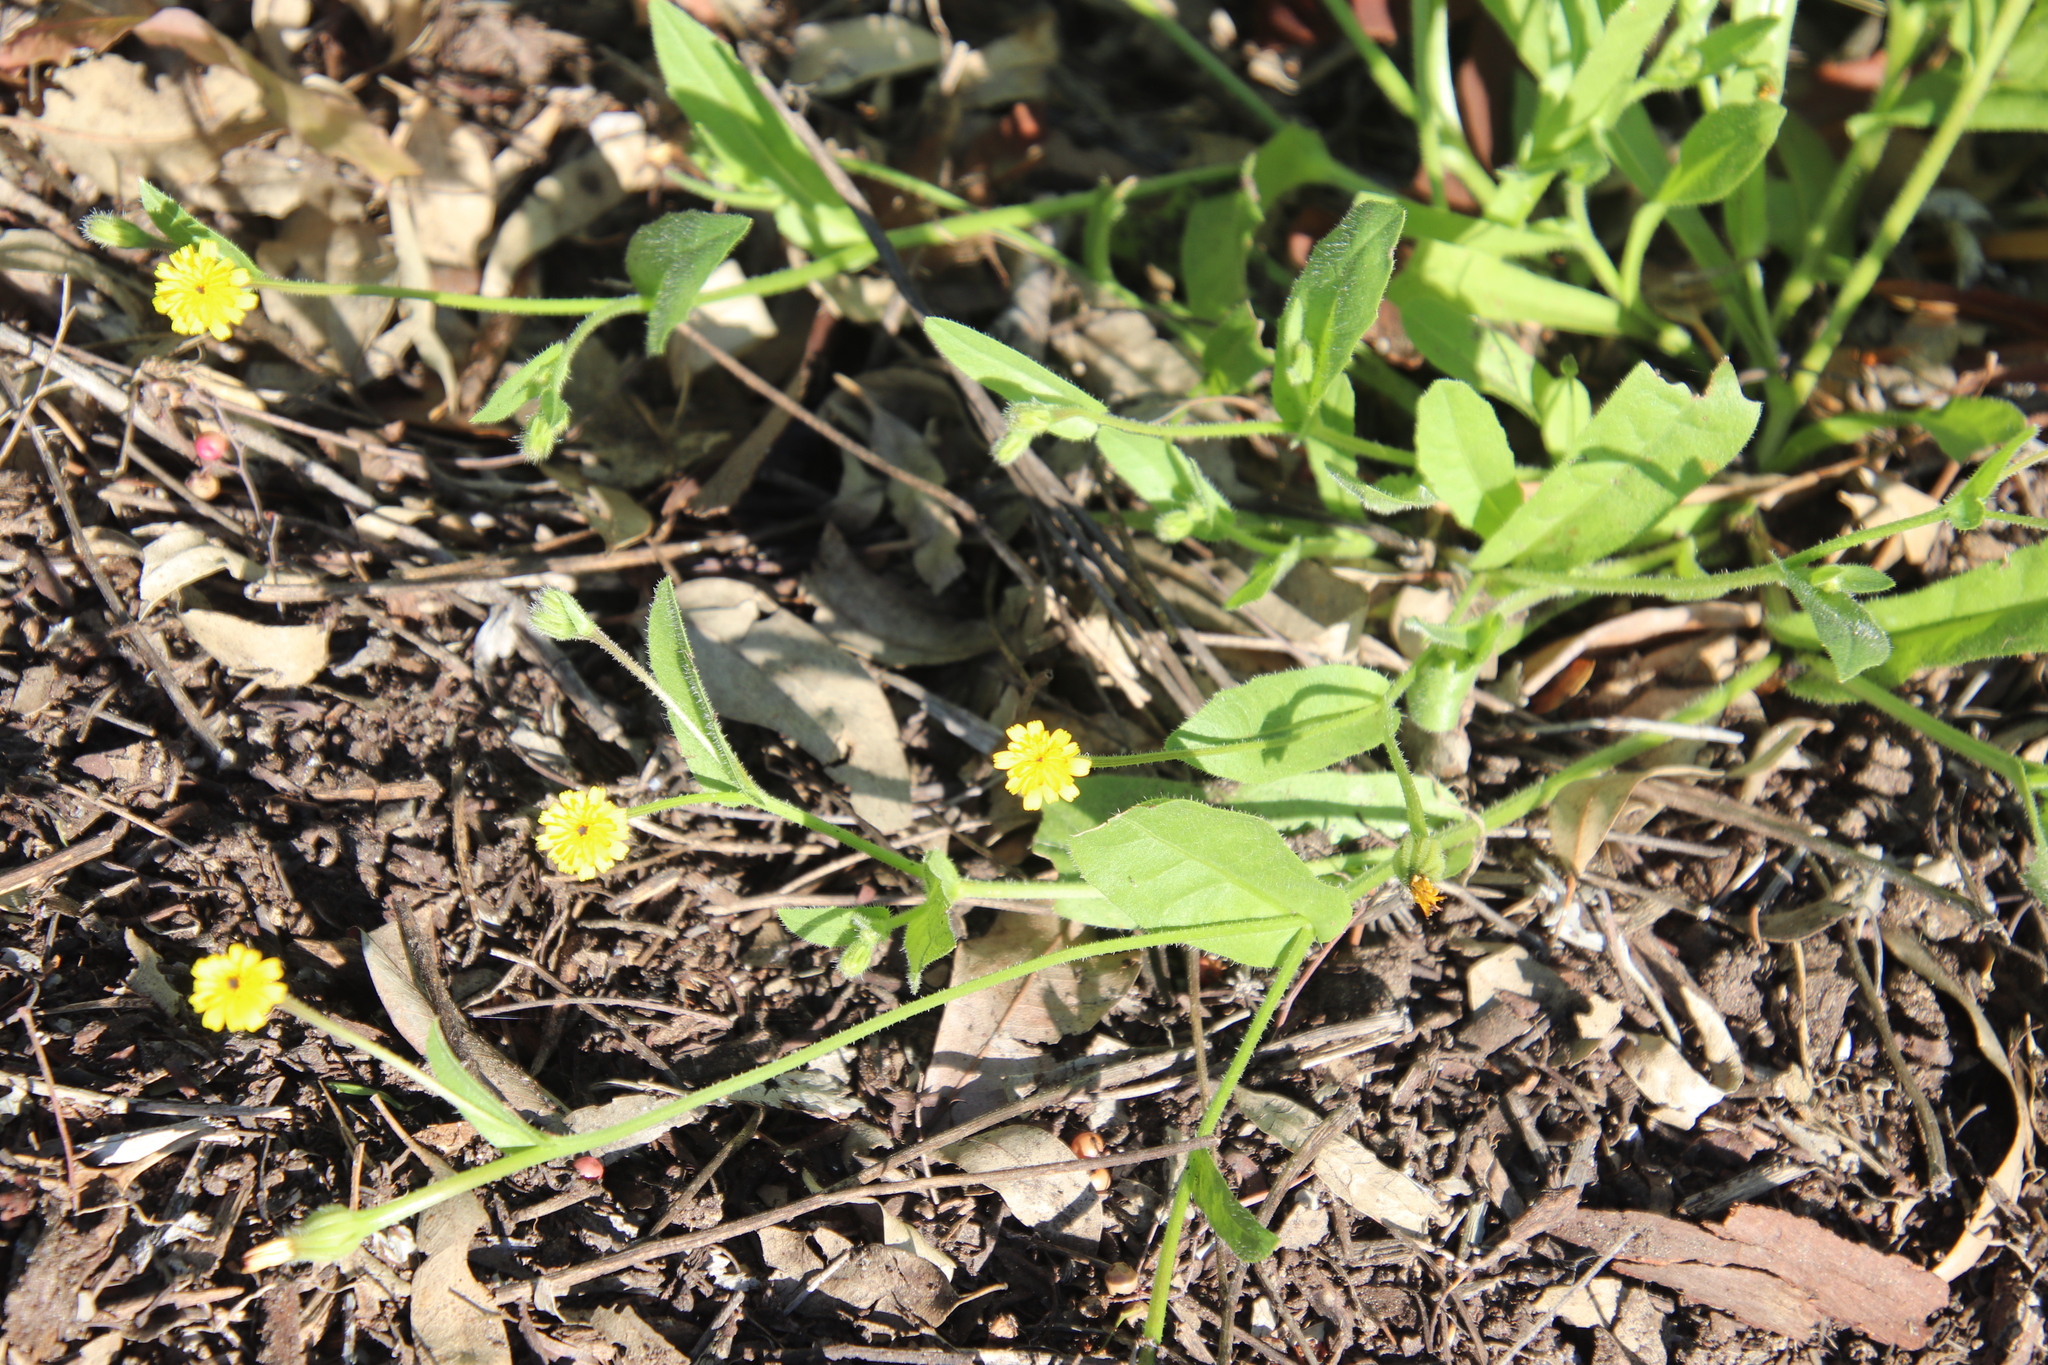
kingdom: Plantae
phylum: Tracheophyta
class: Magnoliopsida
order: Asterales
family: Asteraceae
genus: Hedypnois
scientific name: Hedypnois rhagadioloides
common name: Cretan weed
